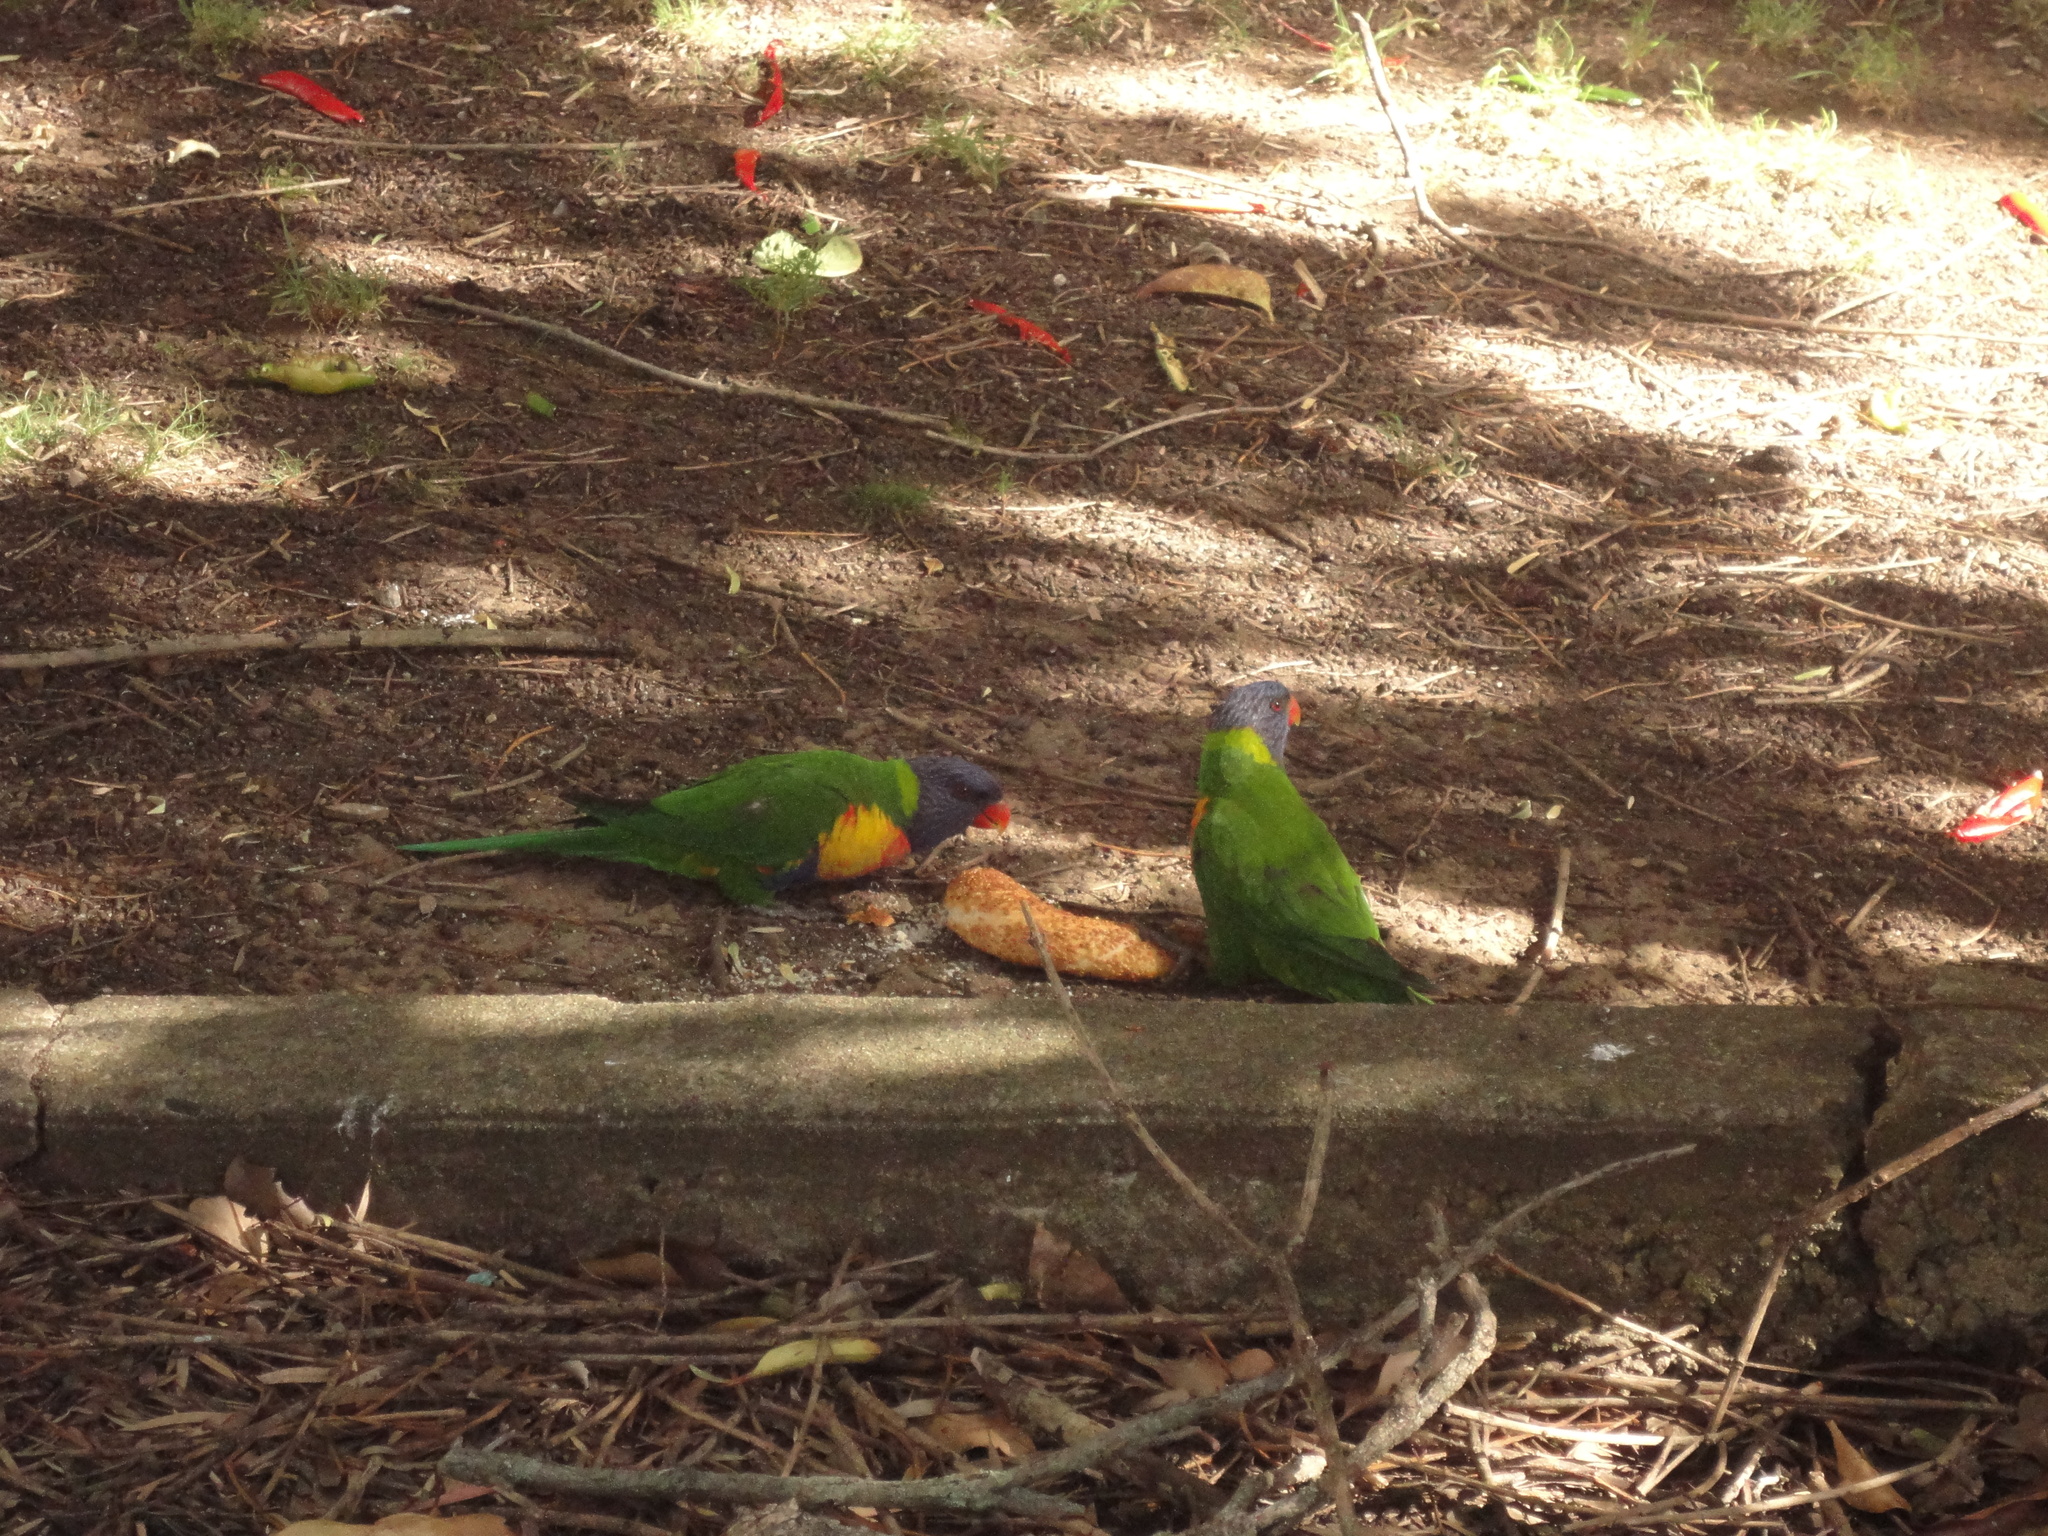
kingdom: Animalia
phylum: Chordata
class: Aves
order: Psittaciformes
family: Psittacidae
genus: Trichoglossus
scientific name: Trichoglossus haematodus
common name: Coconut lorikeet
